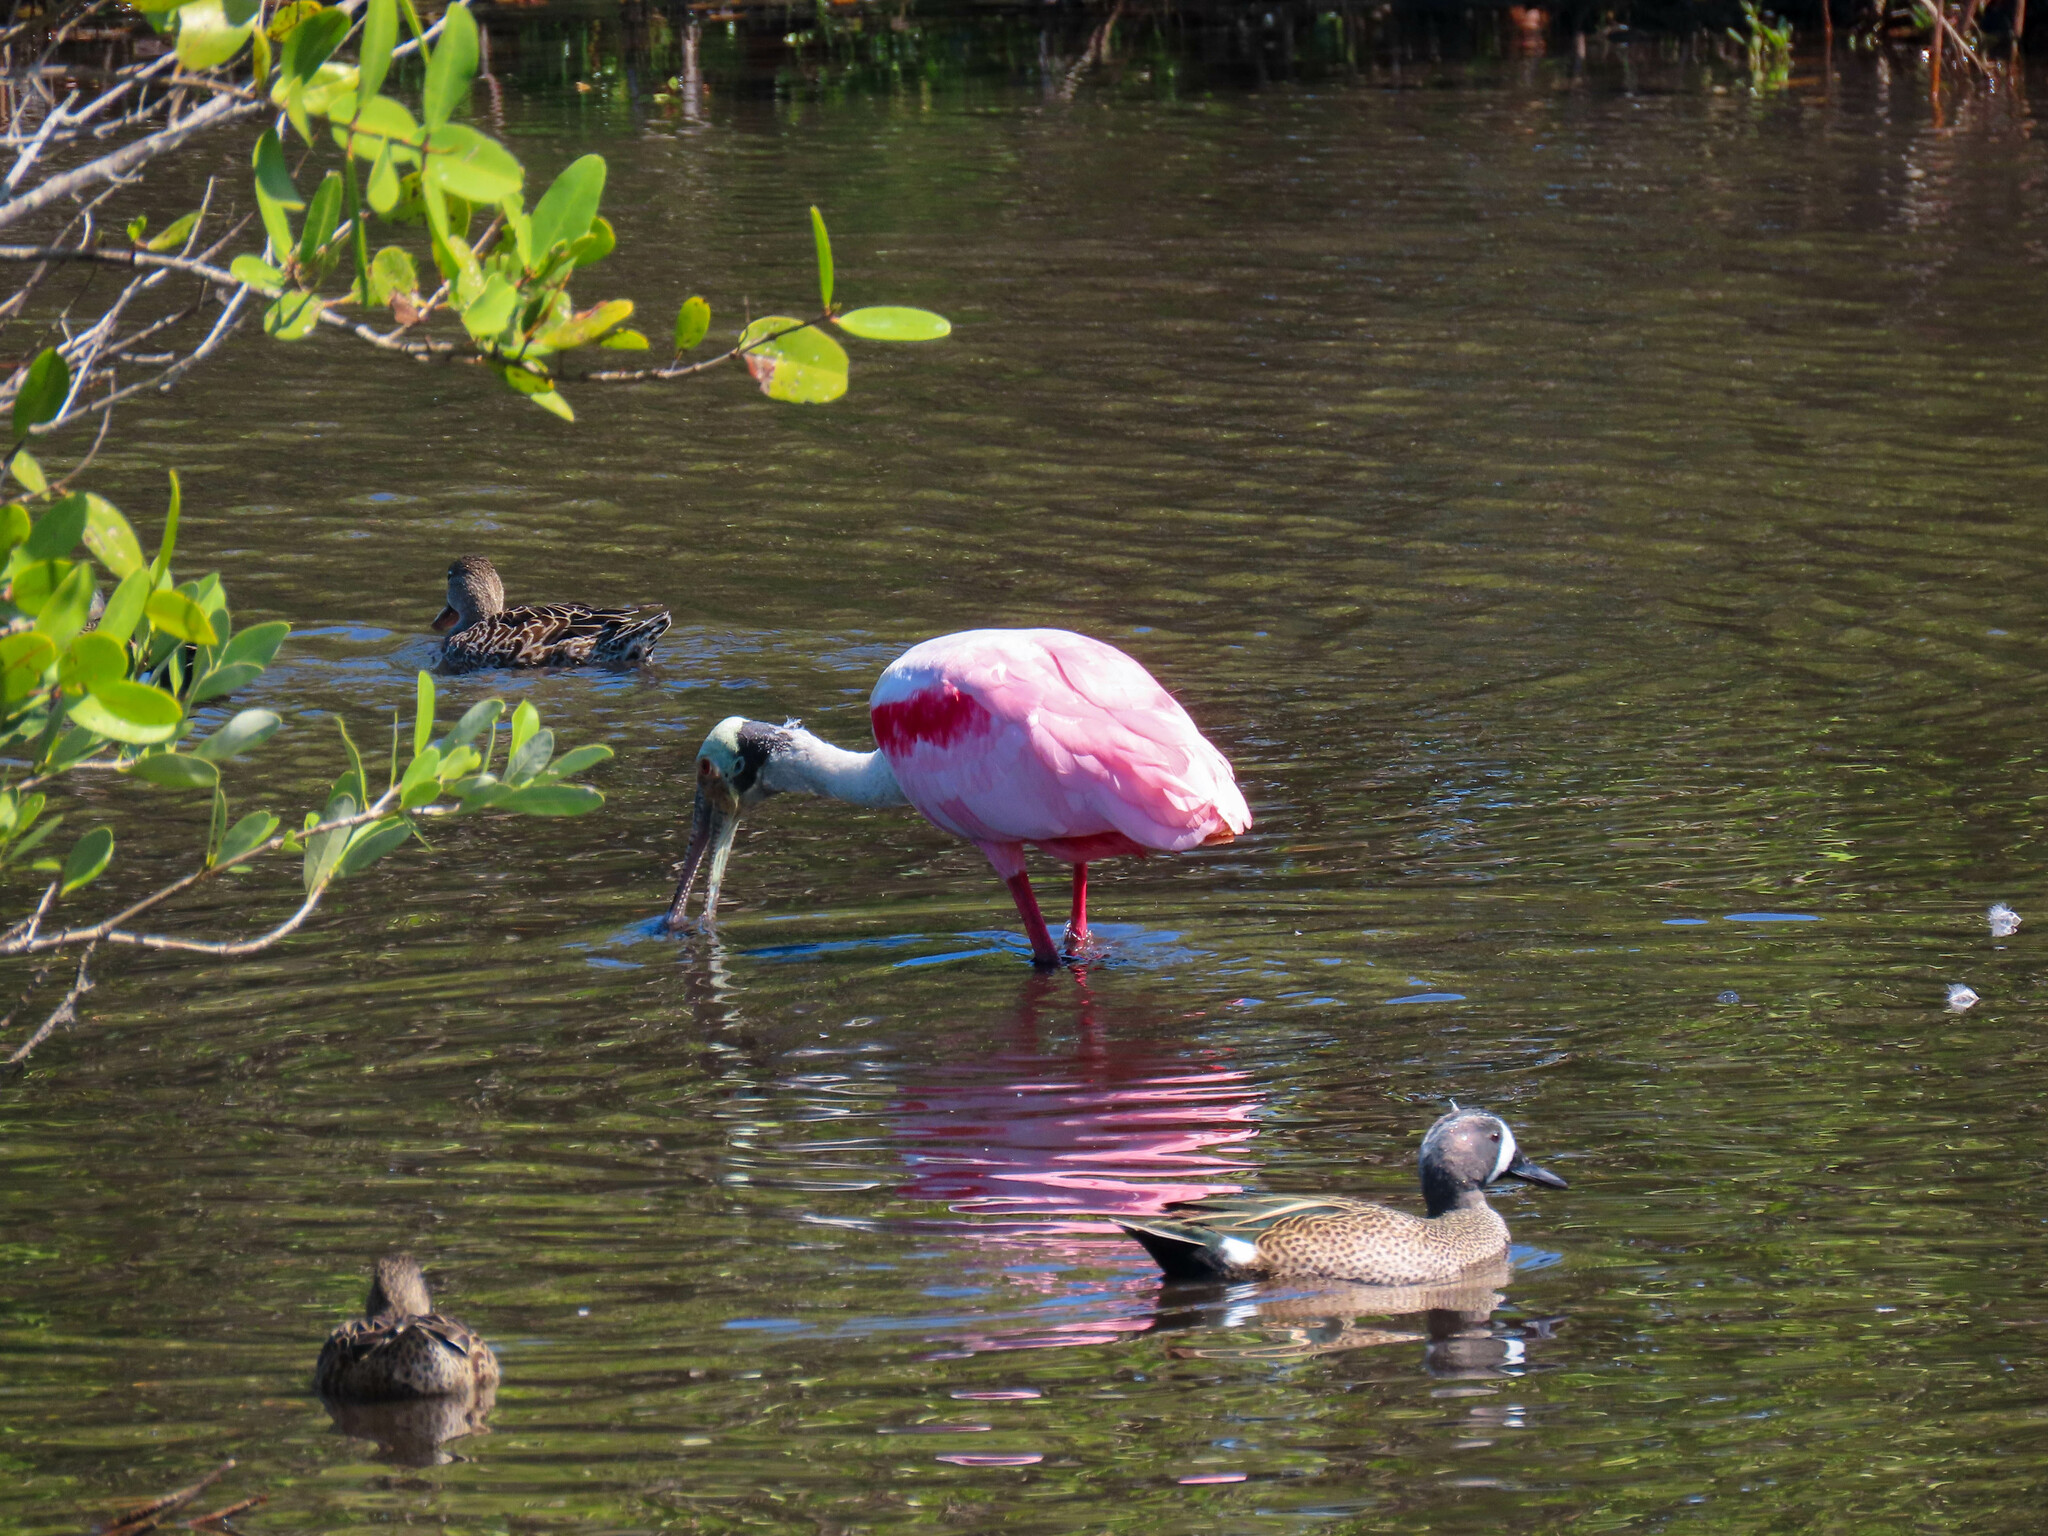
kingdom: Animalia
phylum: Chordata
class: Aves
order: Pelecaniformes
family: Threskiornithidae
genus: Platalea
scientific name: Platalea ajaja
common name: Roseate spoonbill
